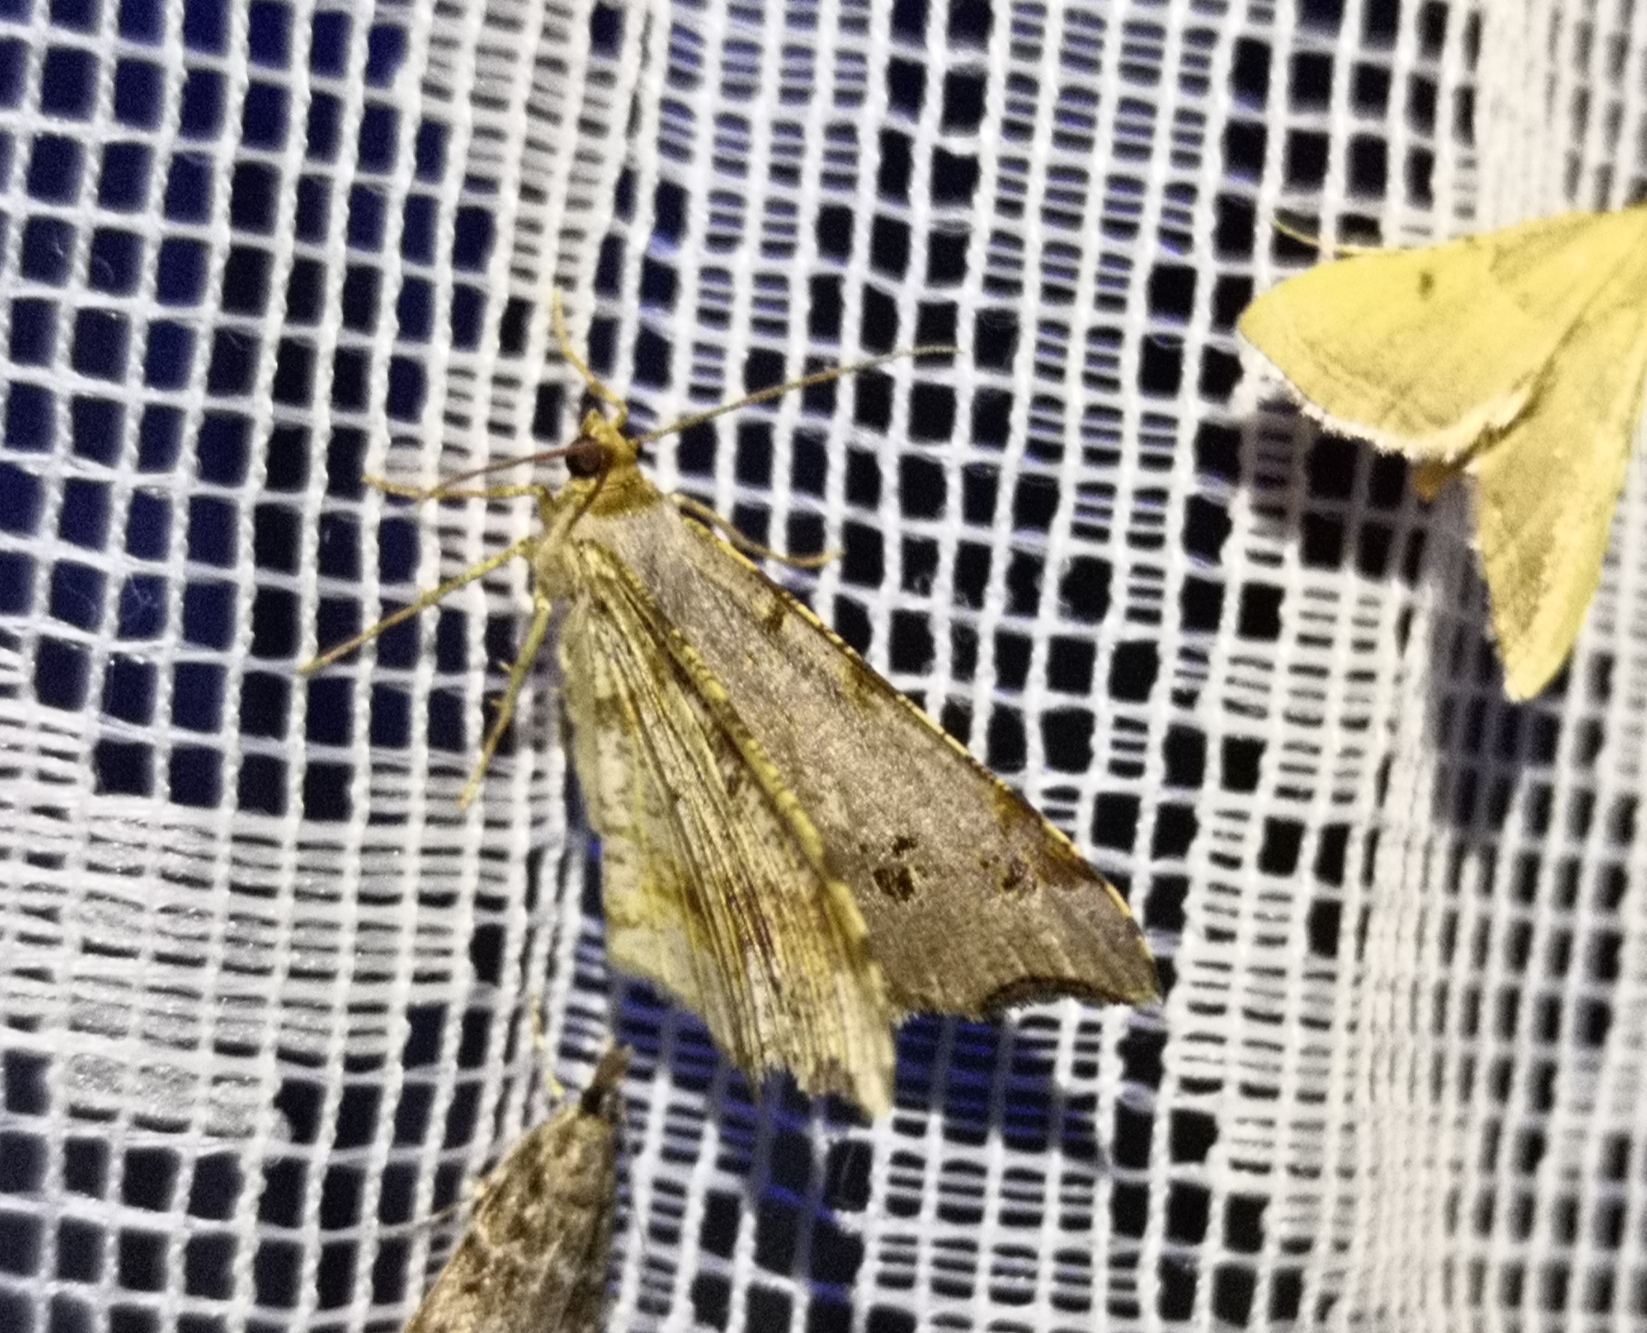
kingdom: Animalia
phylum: Arthropoda
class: Insecta
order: Lepidoptera
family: Geometridae
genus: Macaria
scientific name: Macaria alternata
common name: Sharp-angled peacock
